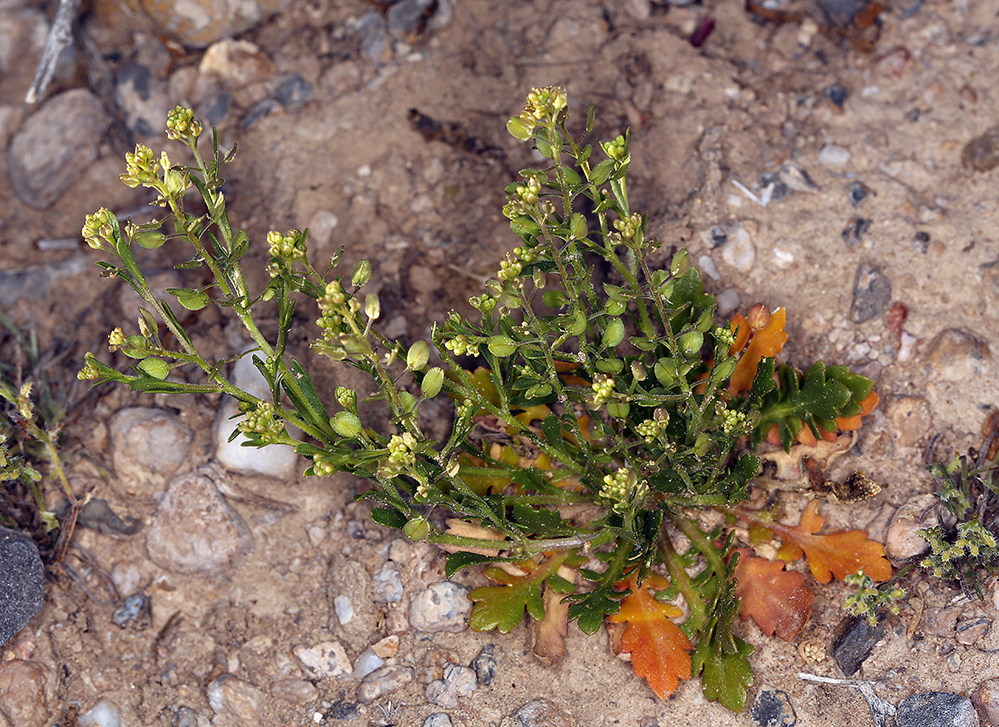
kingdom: Plantae
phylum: Tracheophyta
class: Magnoliopsida
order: Brassicales
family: Brassicaceae
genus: Lepidium
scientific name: Lepidium lasiocarpum
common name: Hairy-pod pepperwort
